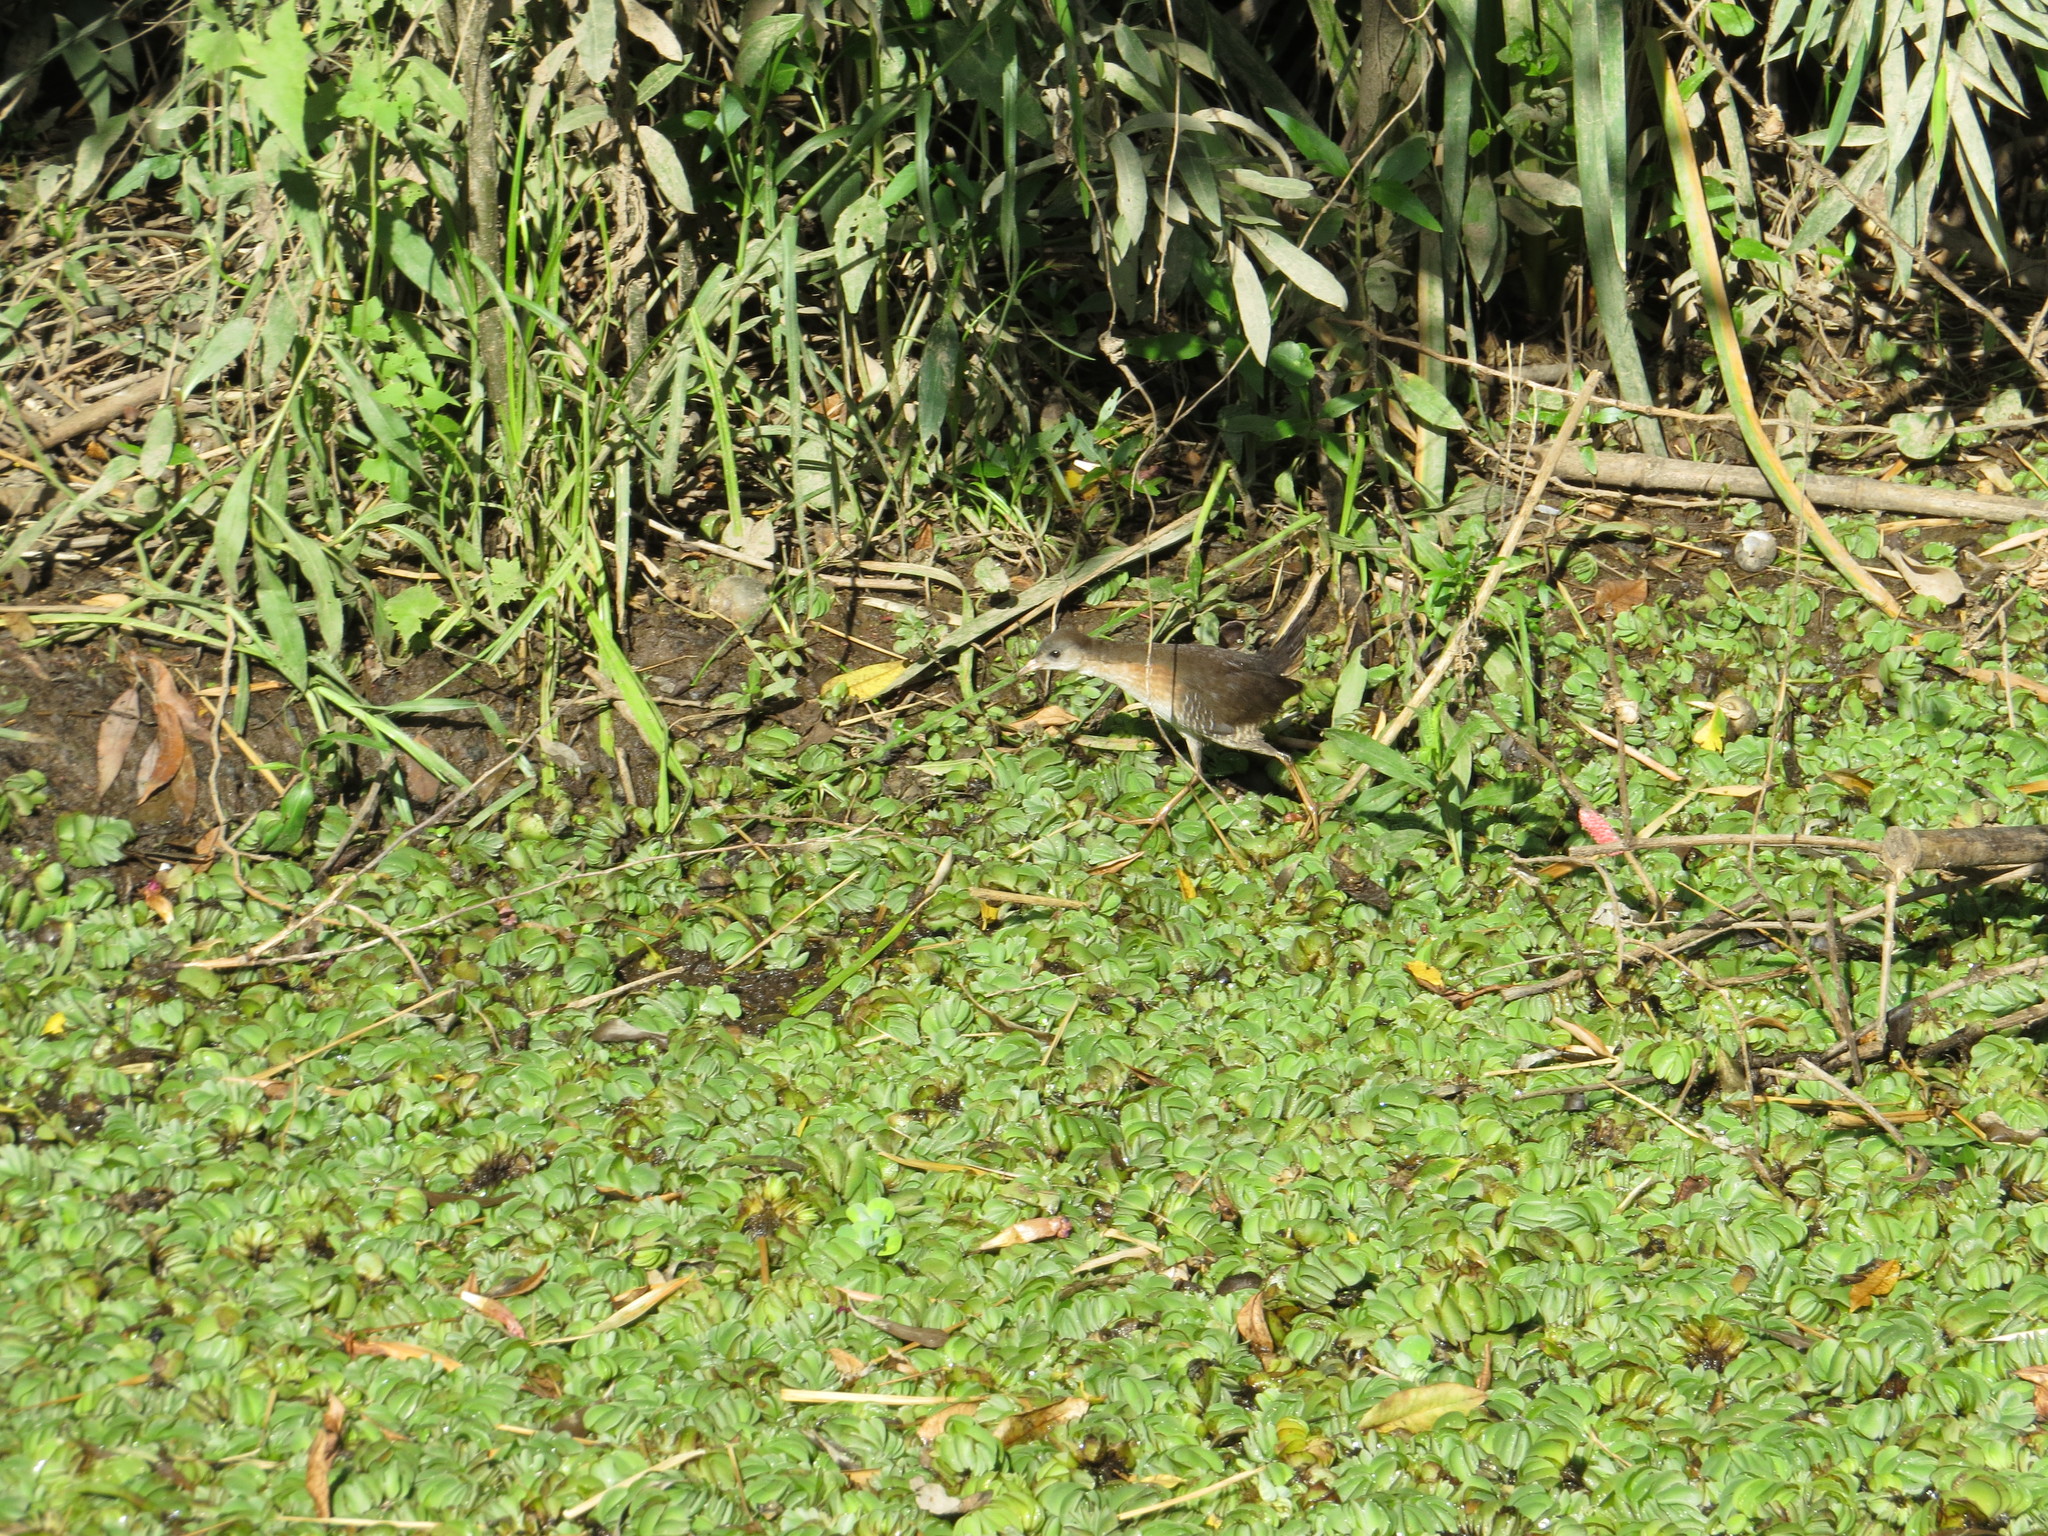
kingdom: Animalia
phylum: Chordata
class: Aves
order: Gruiformes
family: Rallidae
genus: Laterallus
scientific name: Laterallus melanophaius
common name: Rufous-sided crake
